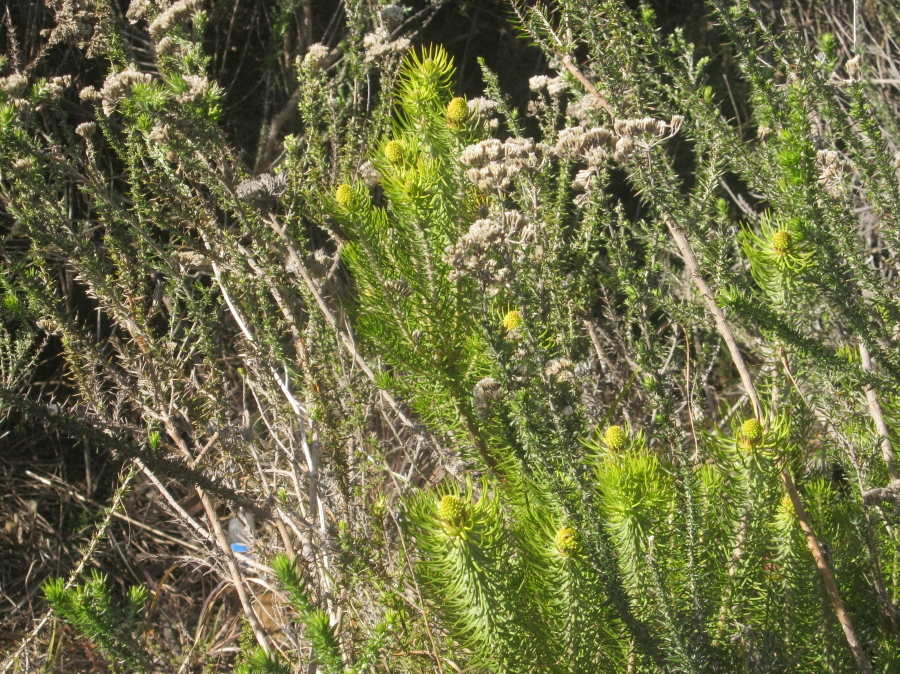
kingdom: Plantae
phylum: Tracheophyta
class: Magnoliopsida
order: Proteales
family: Proteaceae
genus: Leucadendron
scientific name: Leucadendron teretifolium
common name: Needle-leaf conebush
